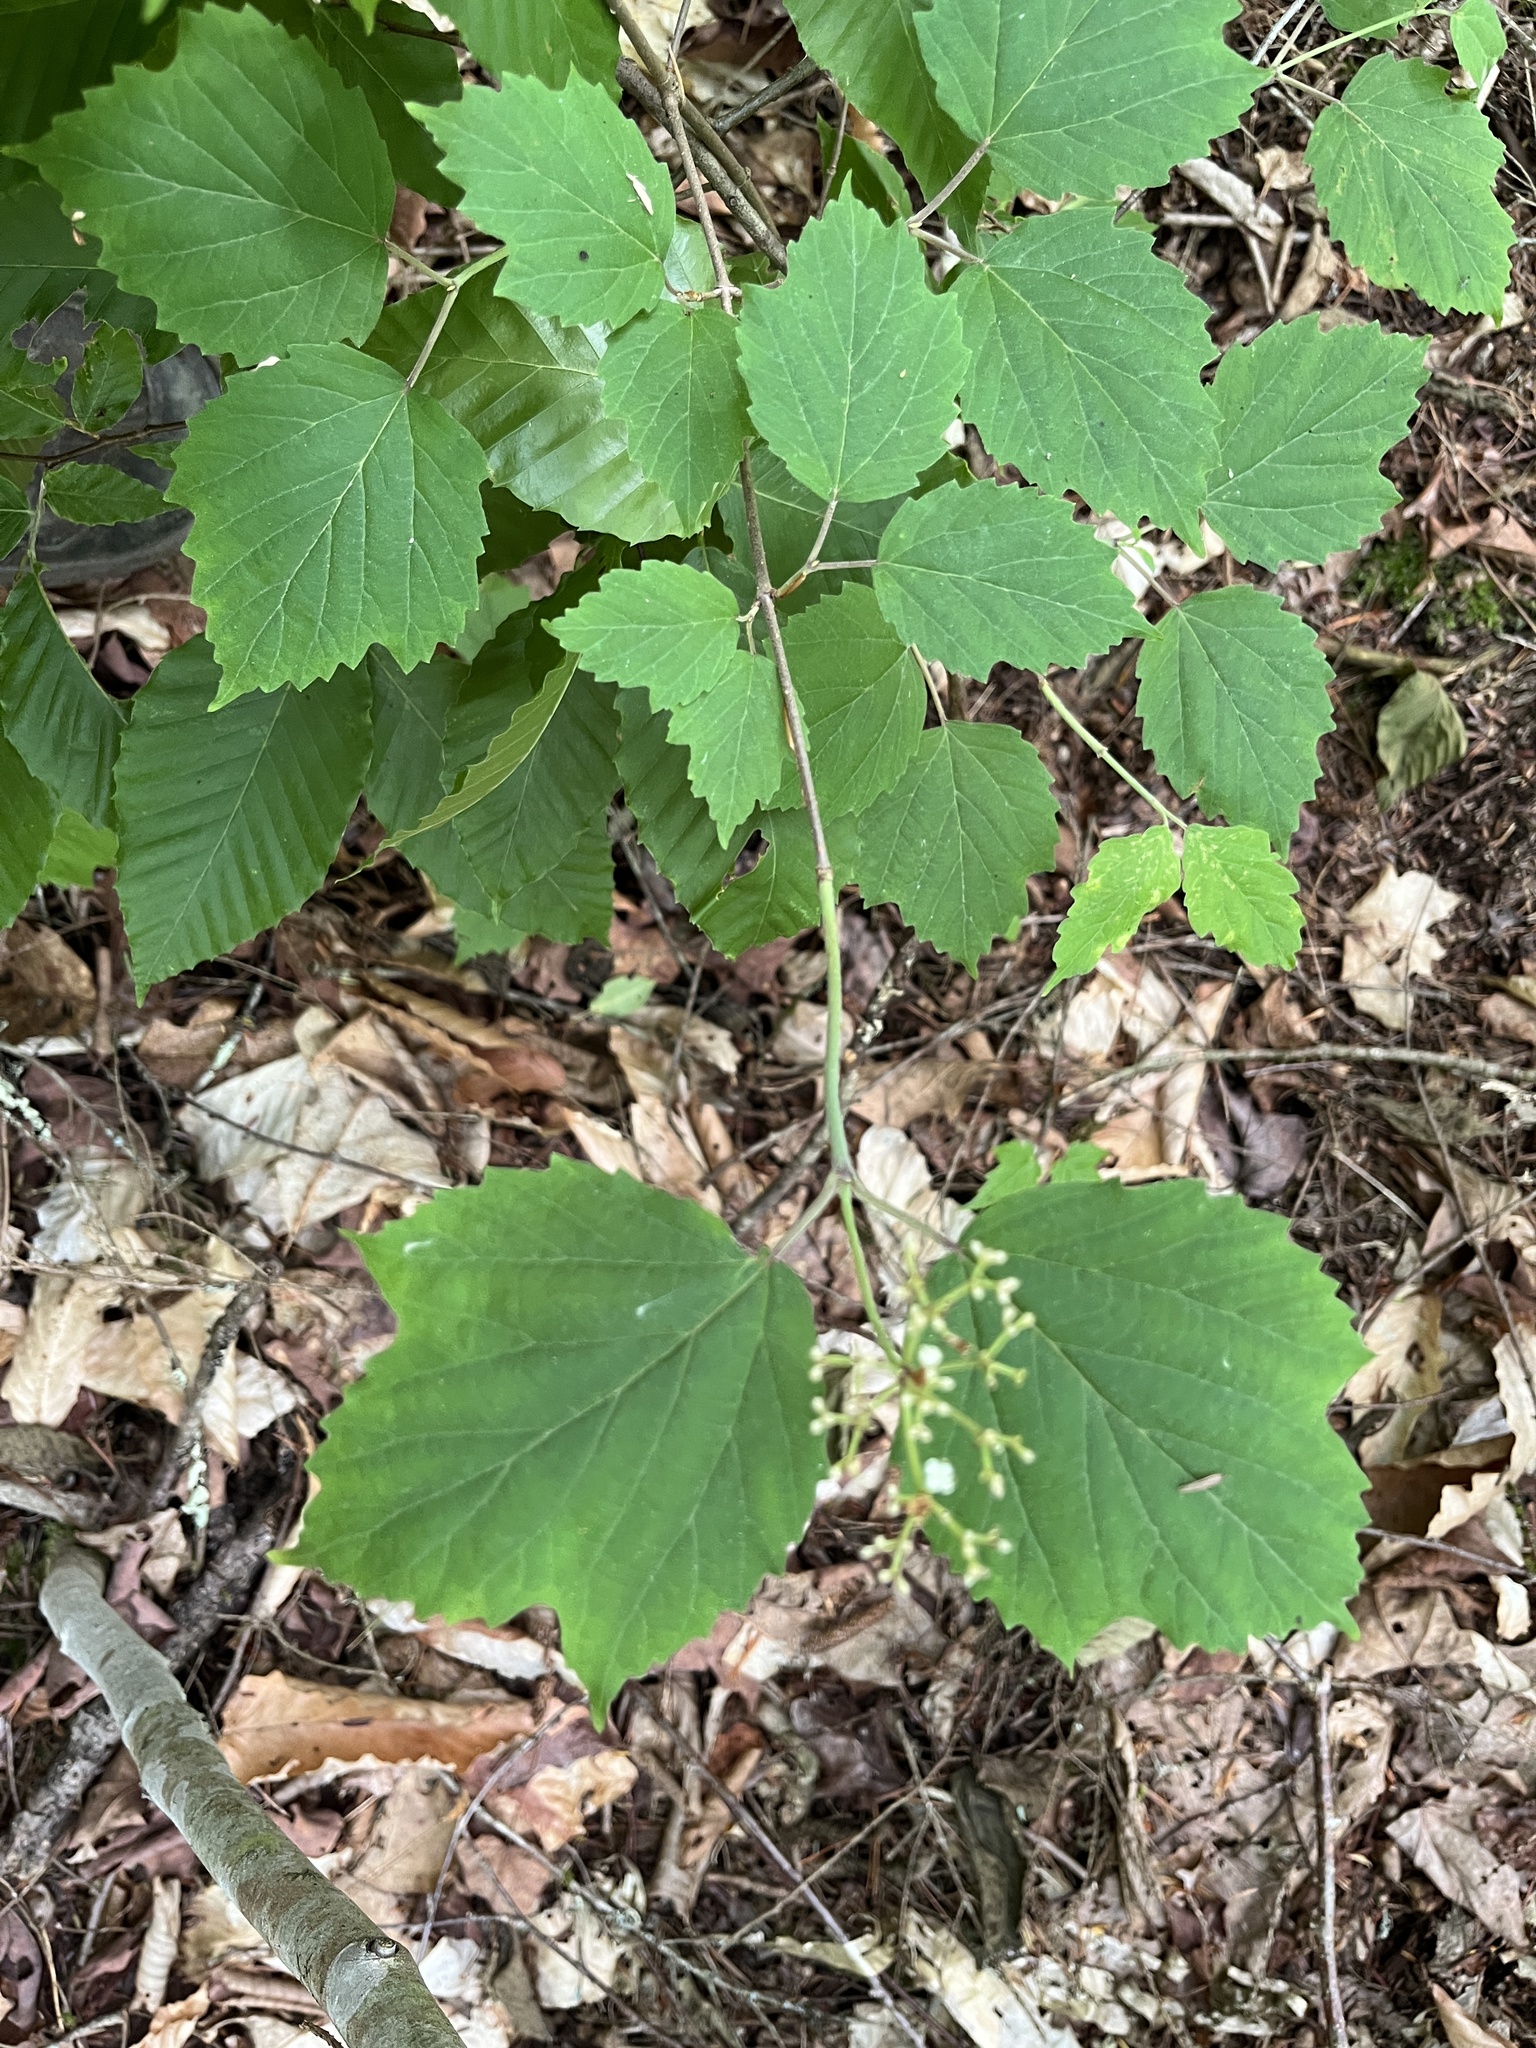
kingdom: Plantae
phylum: Tracheophyta
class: Magnoliopsida
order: Dipsacales
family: Viburnaceae
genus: Viburnum
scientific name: Viburnum acerifolium
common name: Dockmackie
